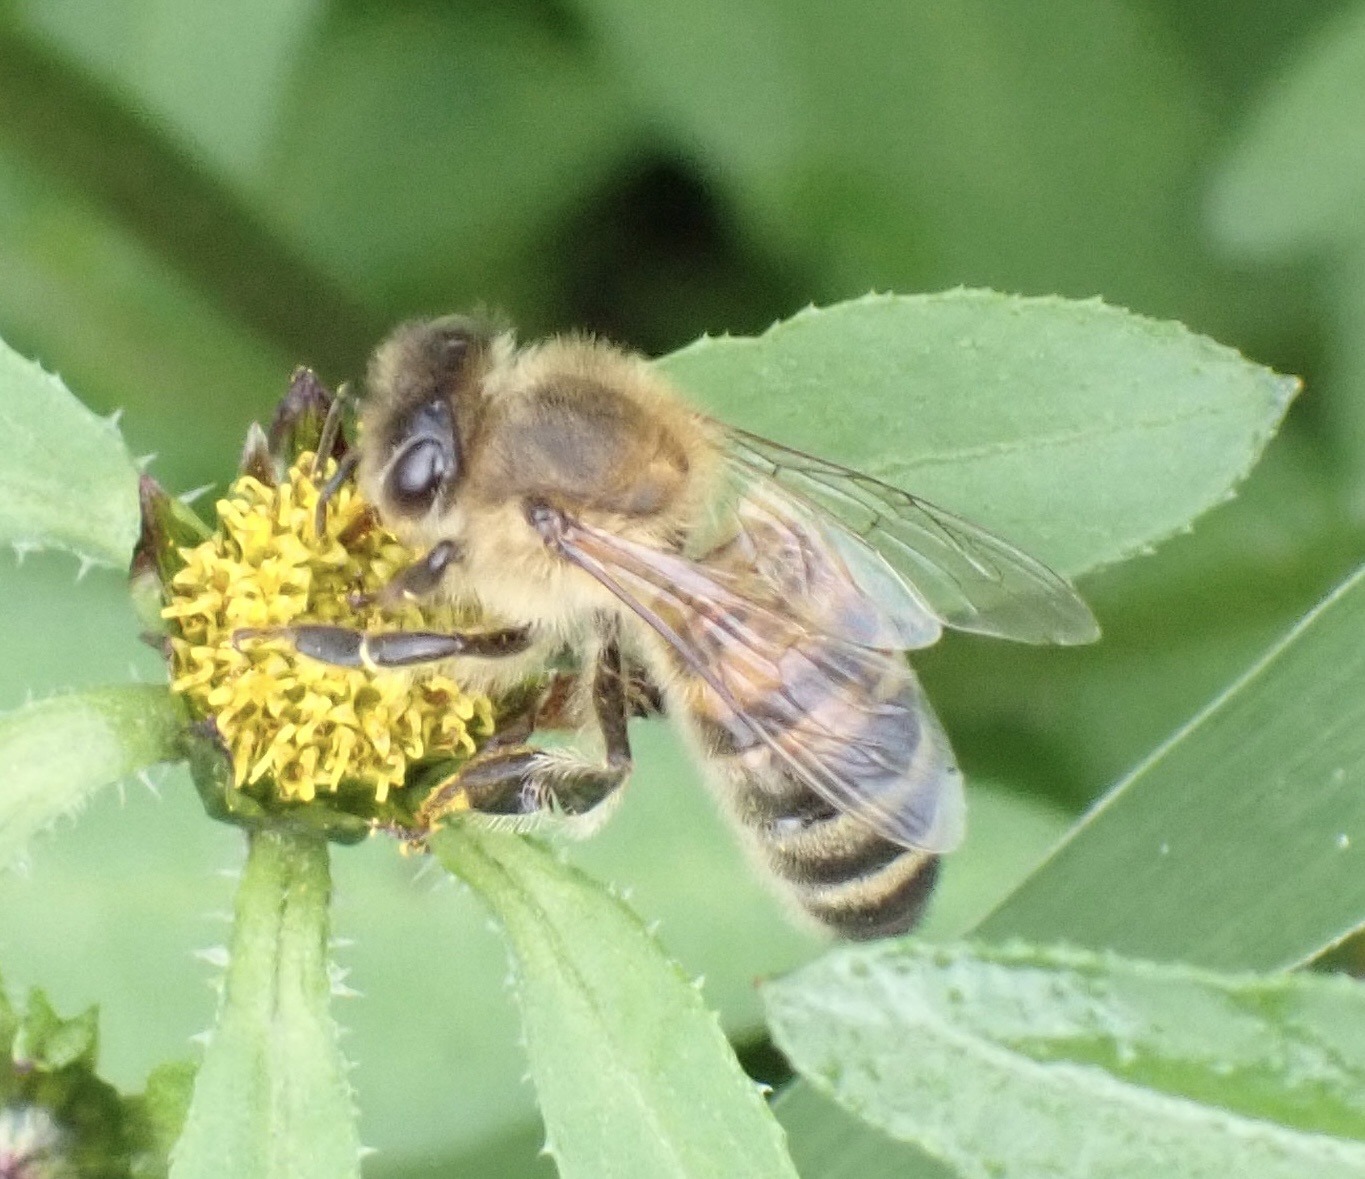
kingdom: Animalia
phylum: Arthropoda
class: Insecta
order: Hymenoptera
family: Apidae
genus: Apis
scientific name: Apis mellifera
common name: Honey bee
